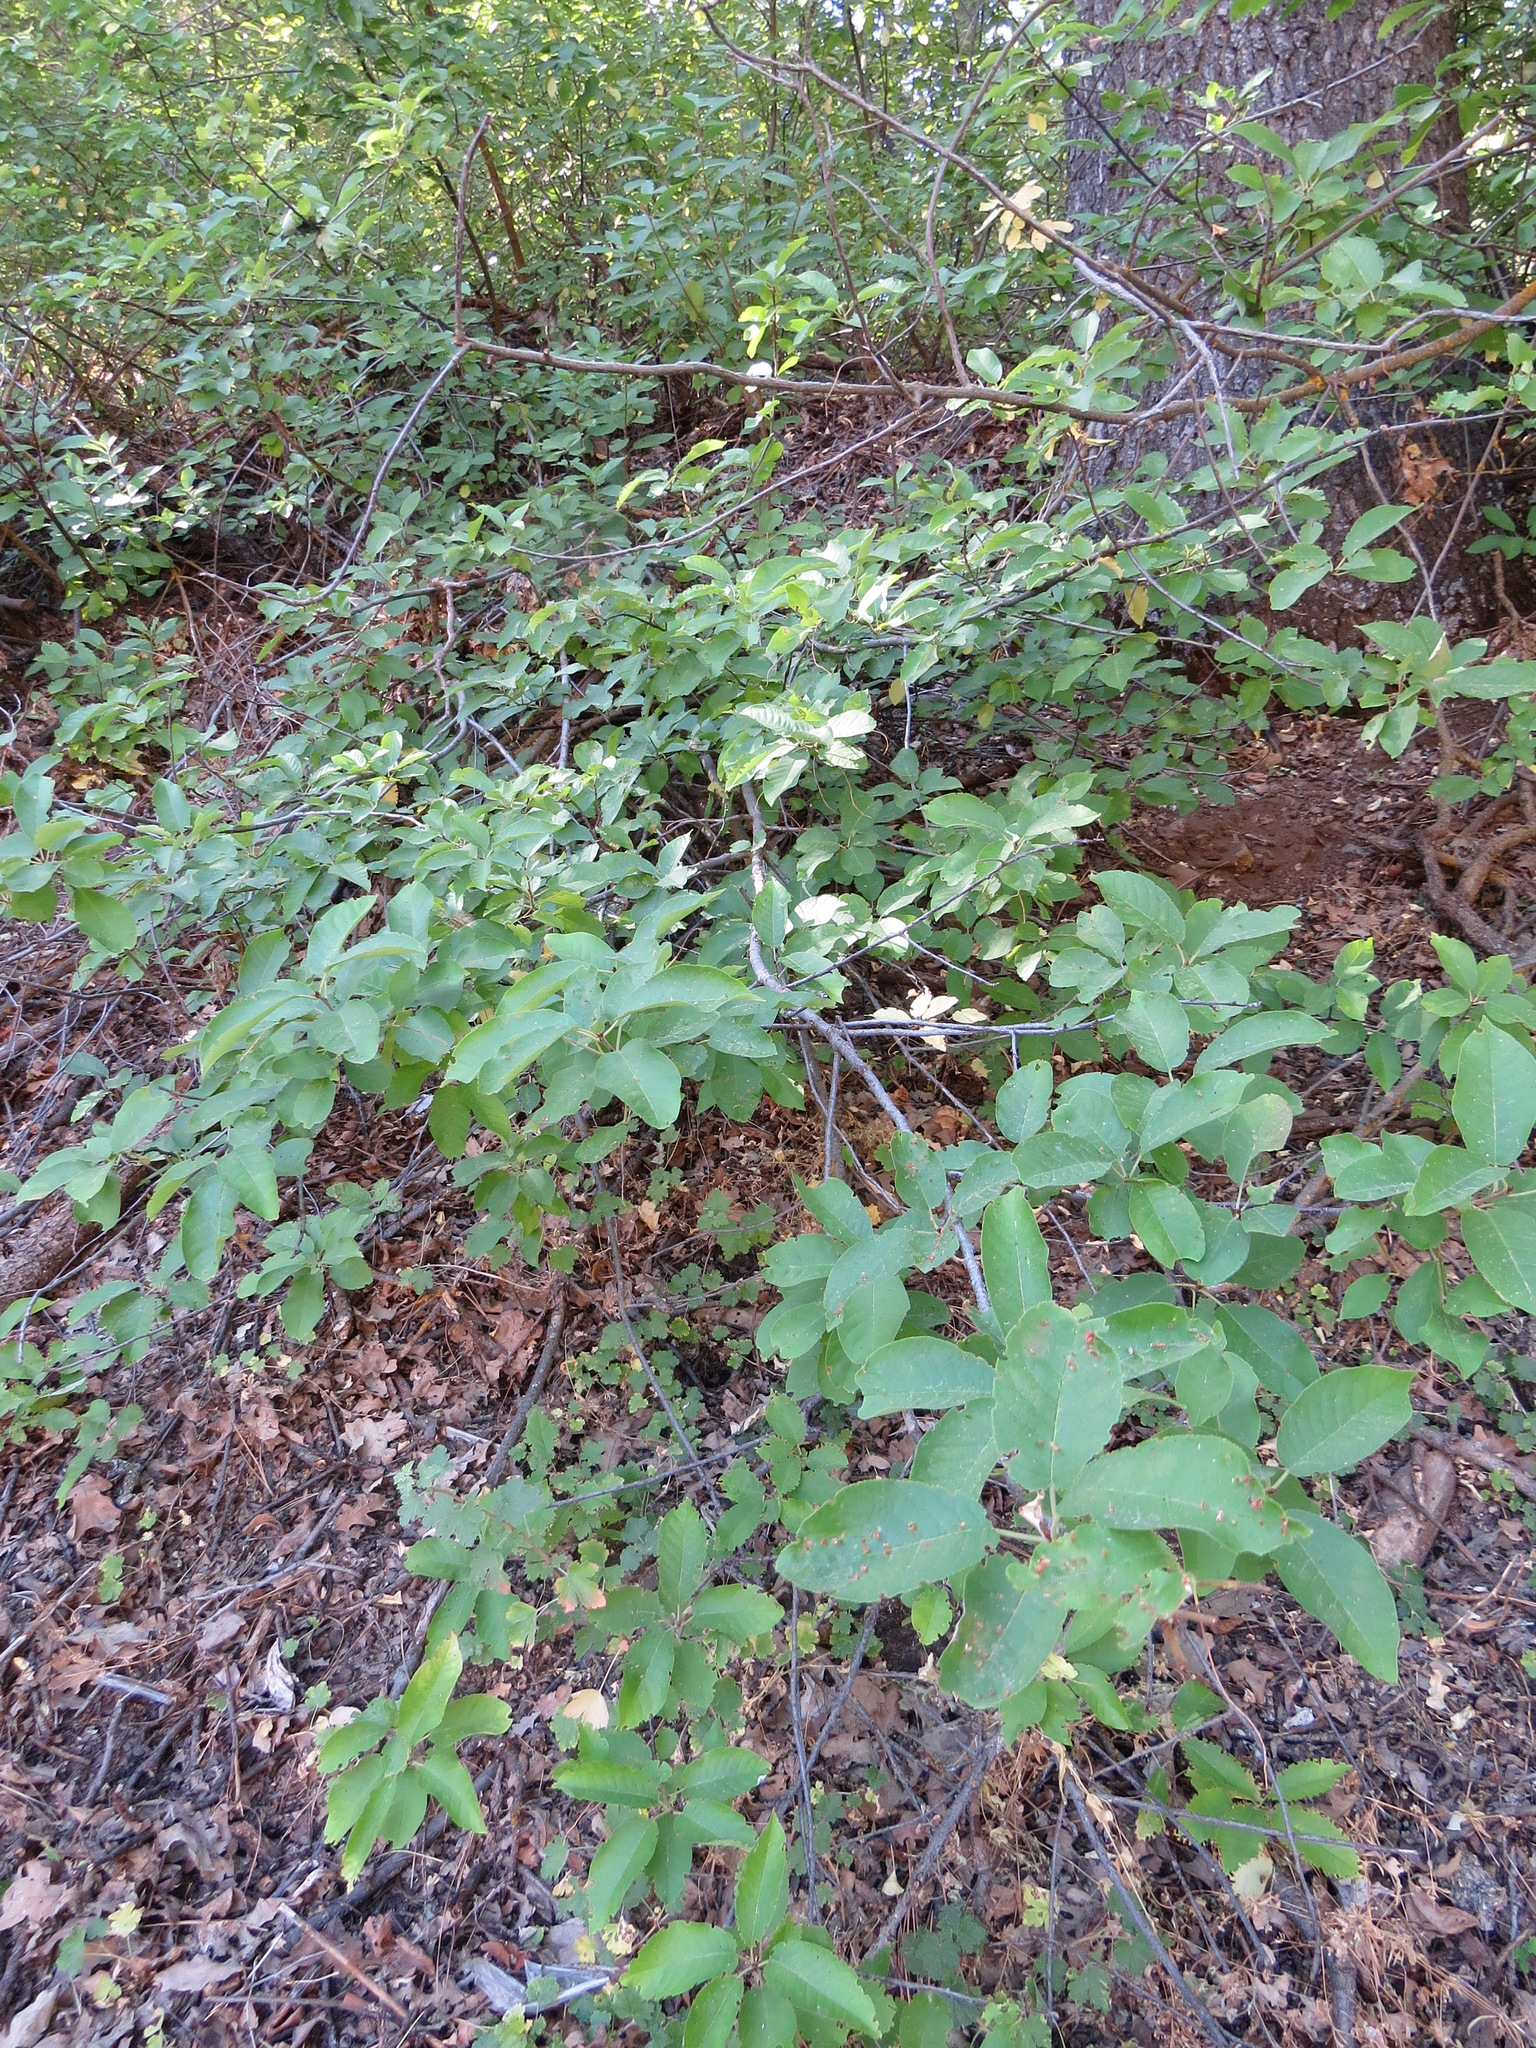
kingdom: Animalia
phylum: Arthropoda
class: Arachnida
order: Trombidiformes
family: Eriophyidae
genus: Eriophyes
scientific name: Eriophyes emarginatae
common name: Plum leaf gall mite
